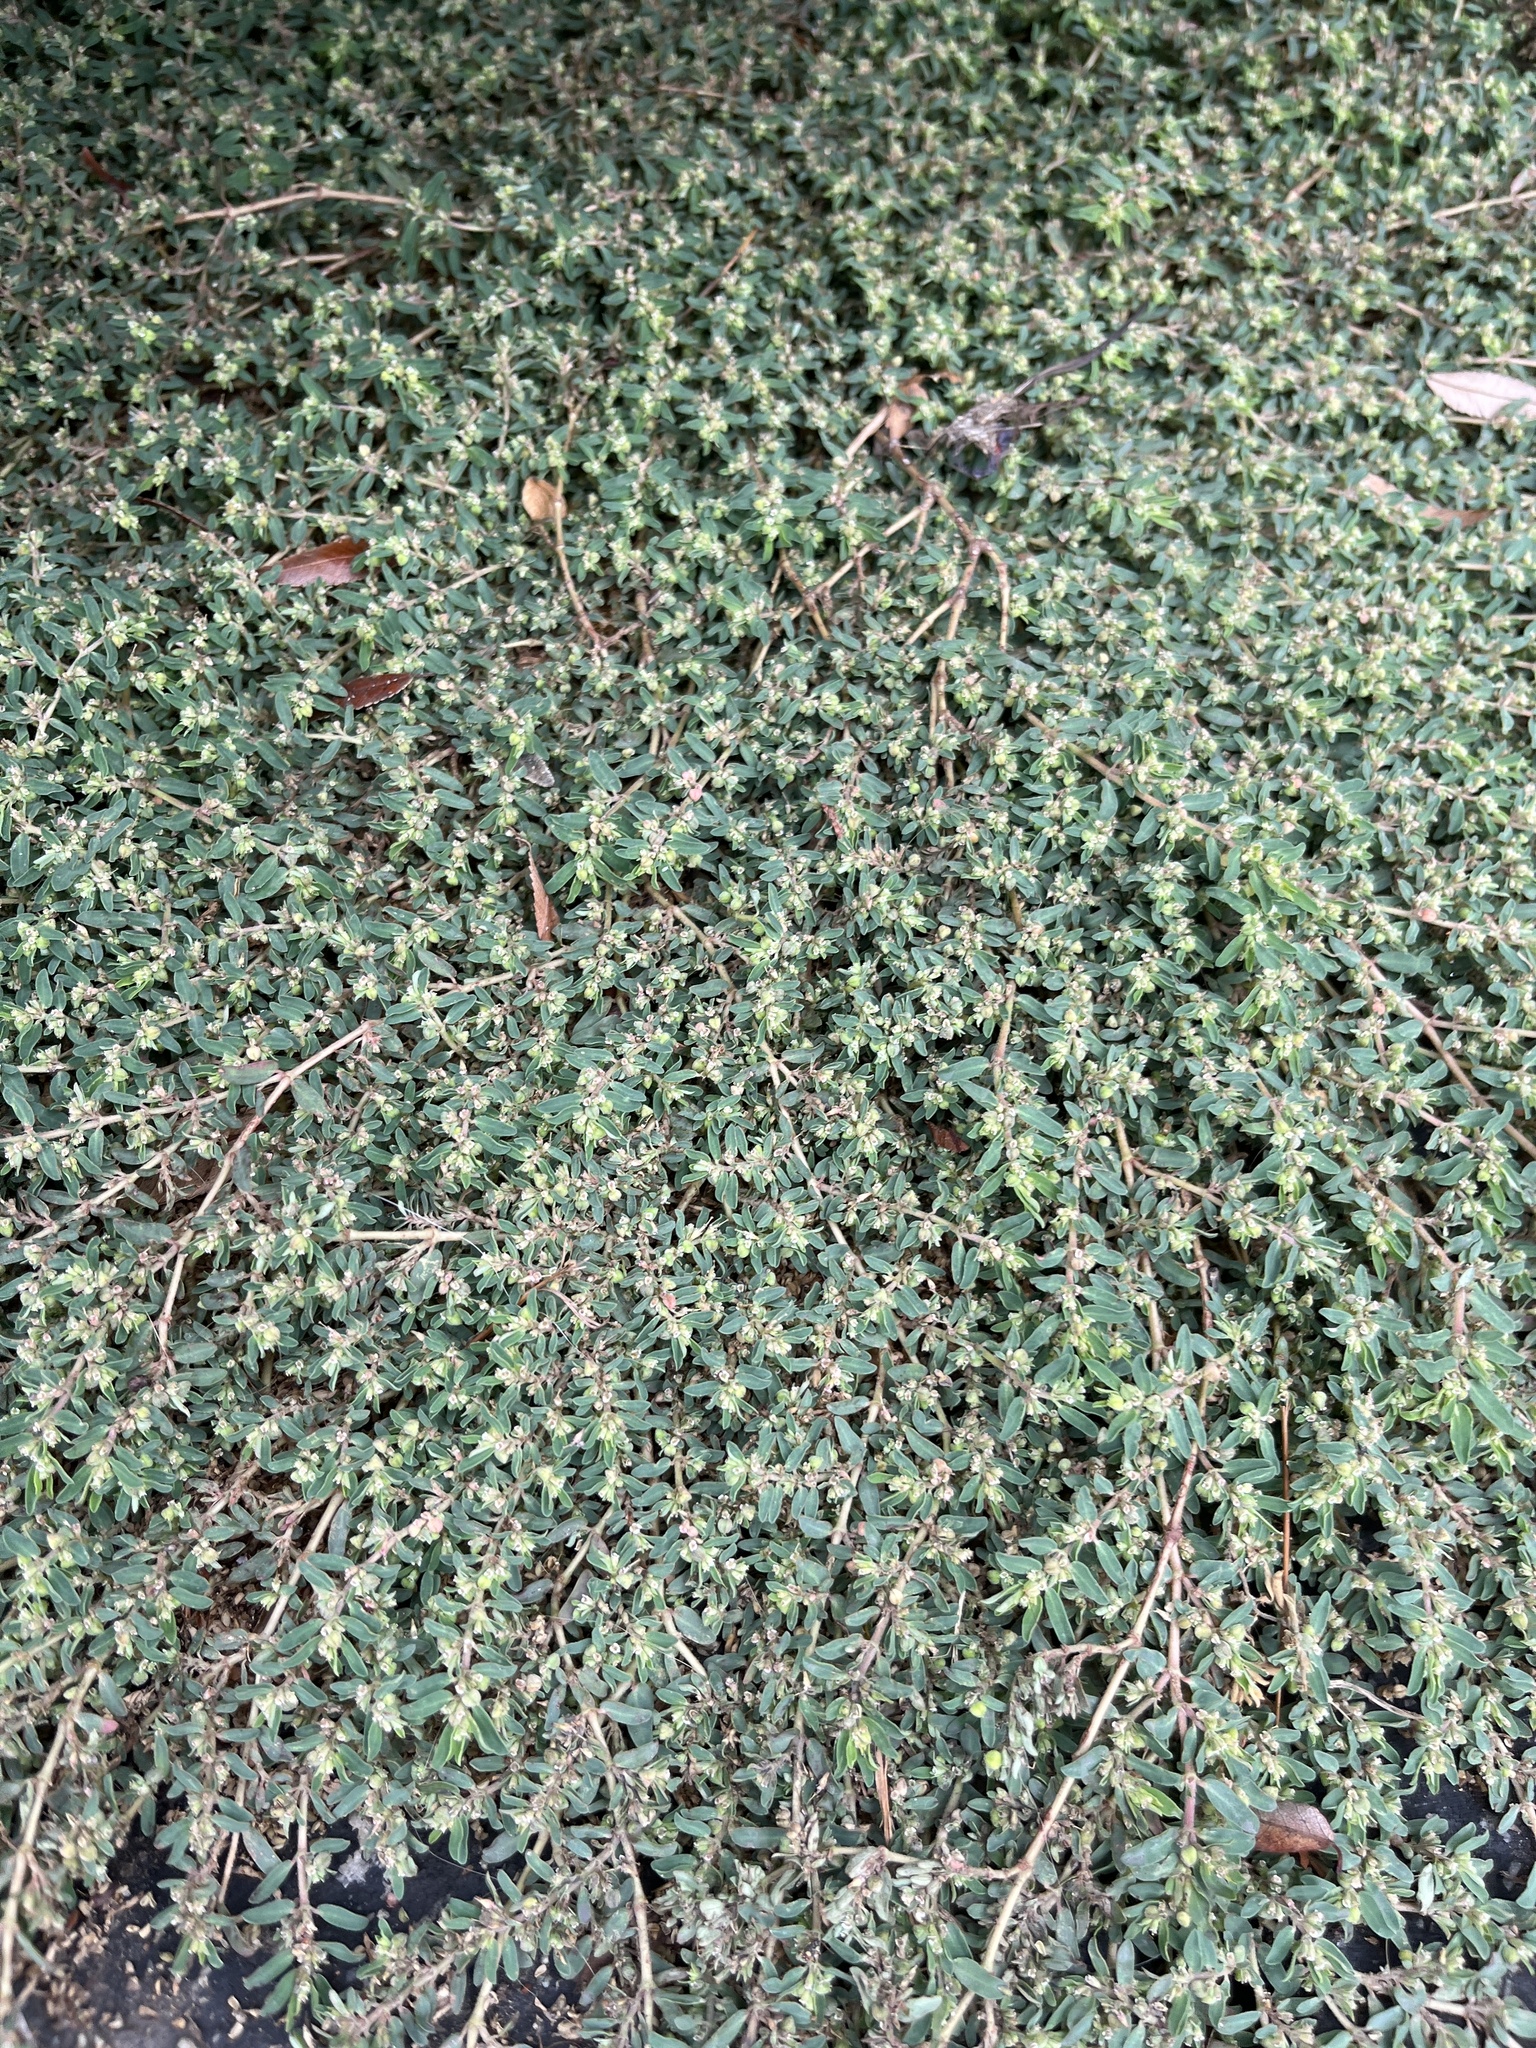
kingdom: Plantae
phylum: Tracheophyta
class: Magnoliopsida
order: Malpighiales
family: Euphorbiaceae
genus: Euphorbia
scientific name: Euphorbia maculata
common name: Spotted spurge
